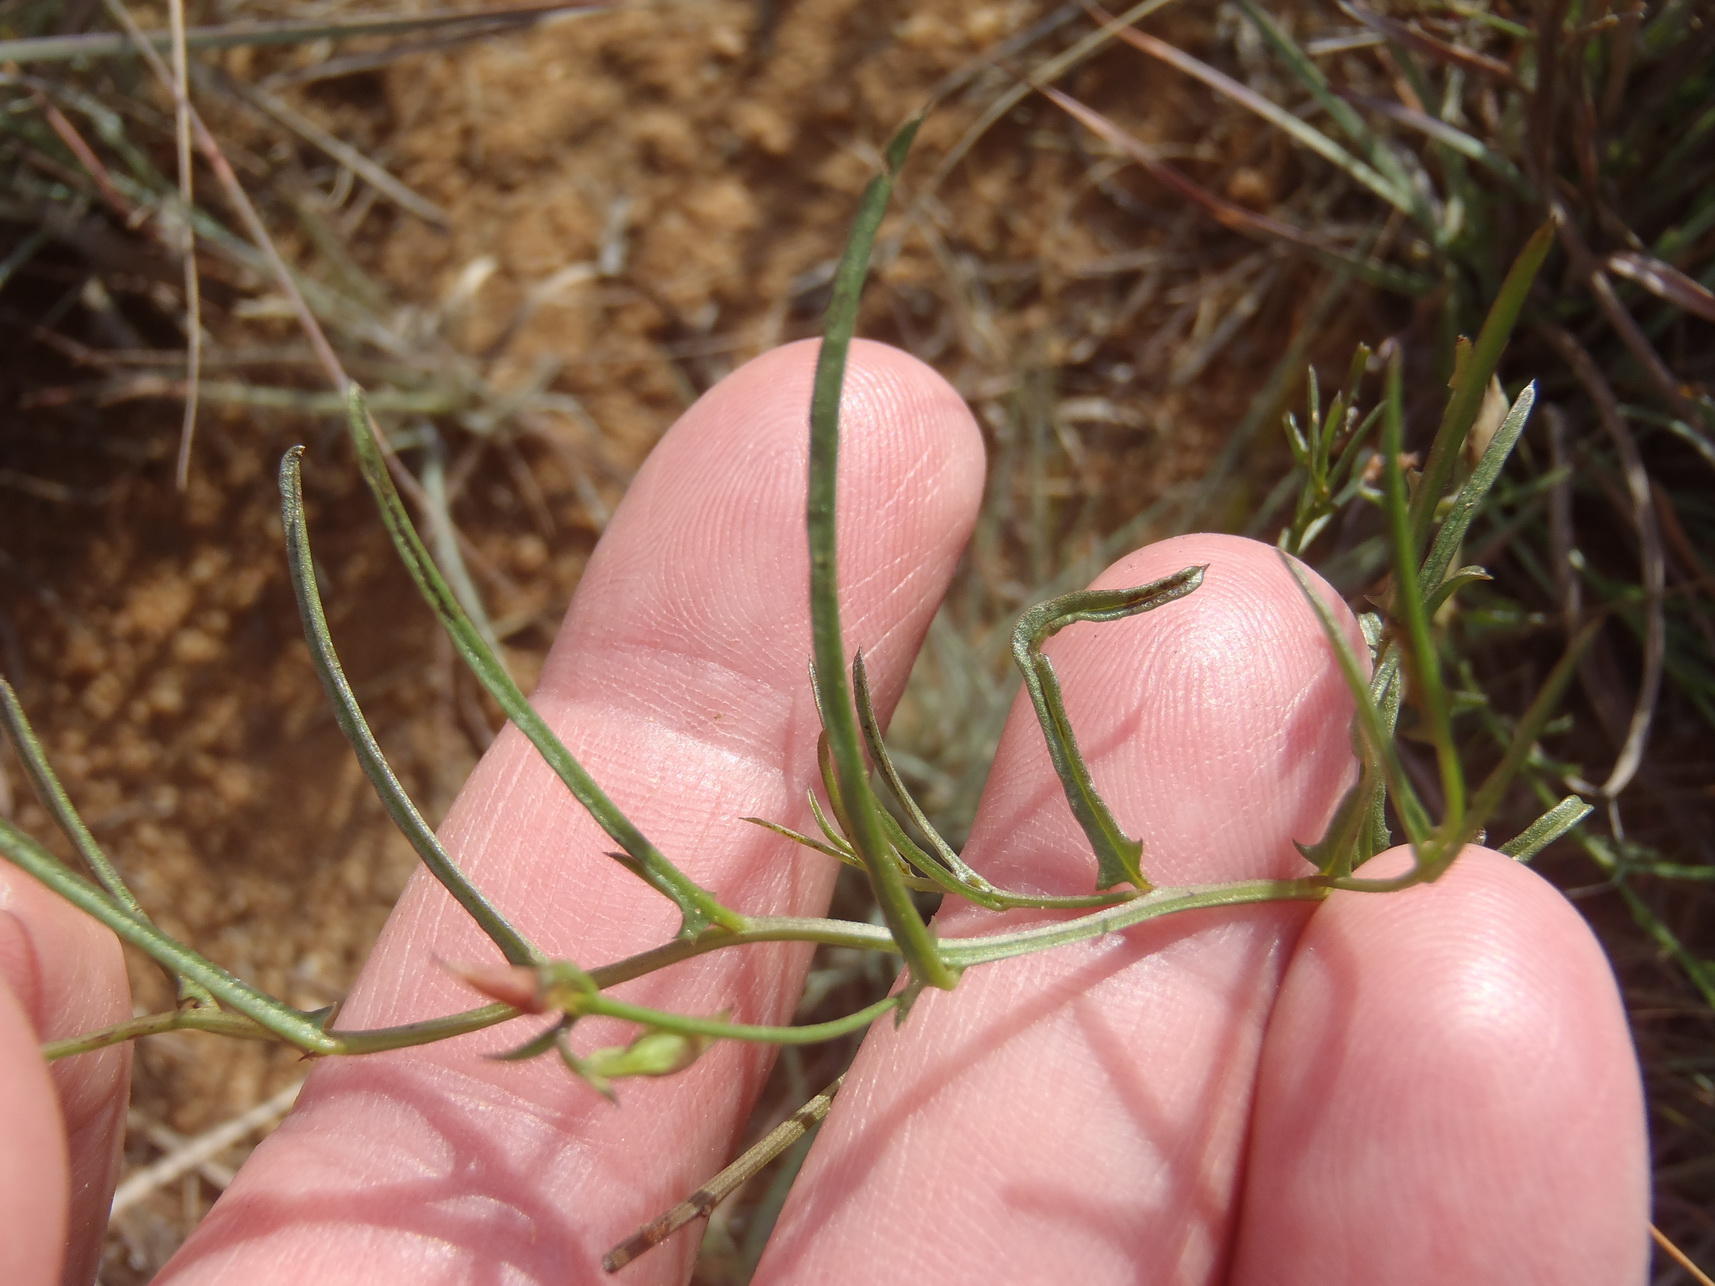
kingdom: Plantae
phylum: Tracheophyta
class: Magnoliopsida
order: Solanales
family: Convolvulaceae
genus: Xenostegia
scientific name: Xenostegia tridentata
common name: African morningvine
